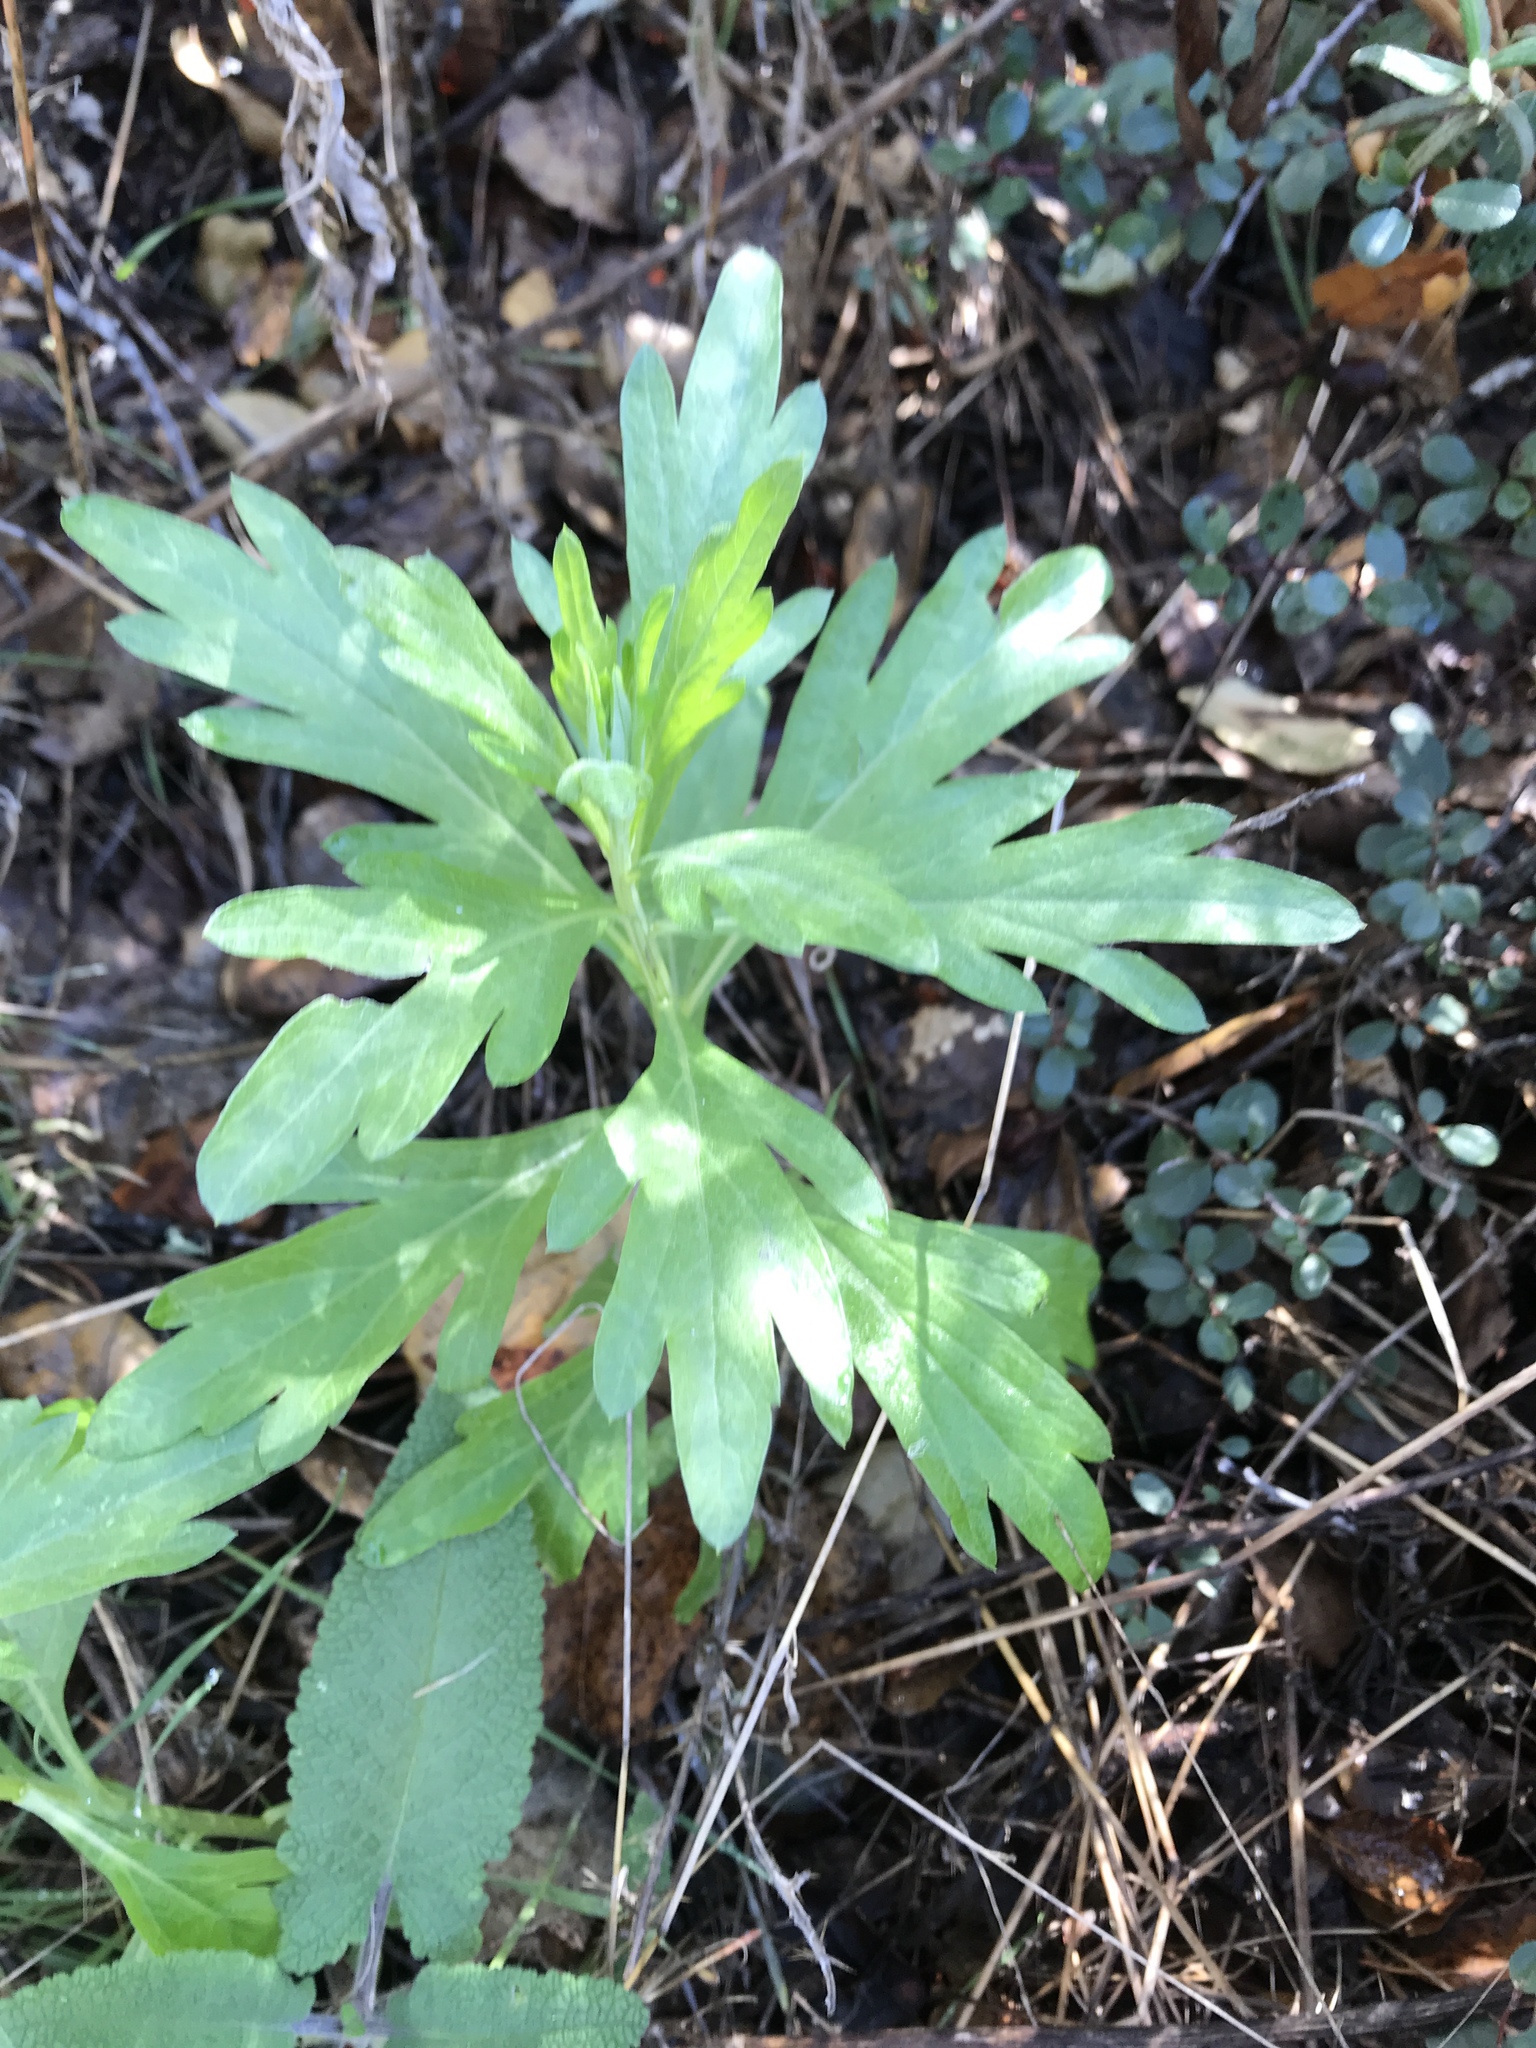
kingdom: Plantae
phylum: Tracheophyta
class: Magnoliopsida
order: Asterales
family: Asteraceae
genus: Artemisia
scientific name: Artemisia douglasiana
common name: Northwest mugwort
